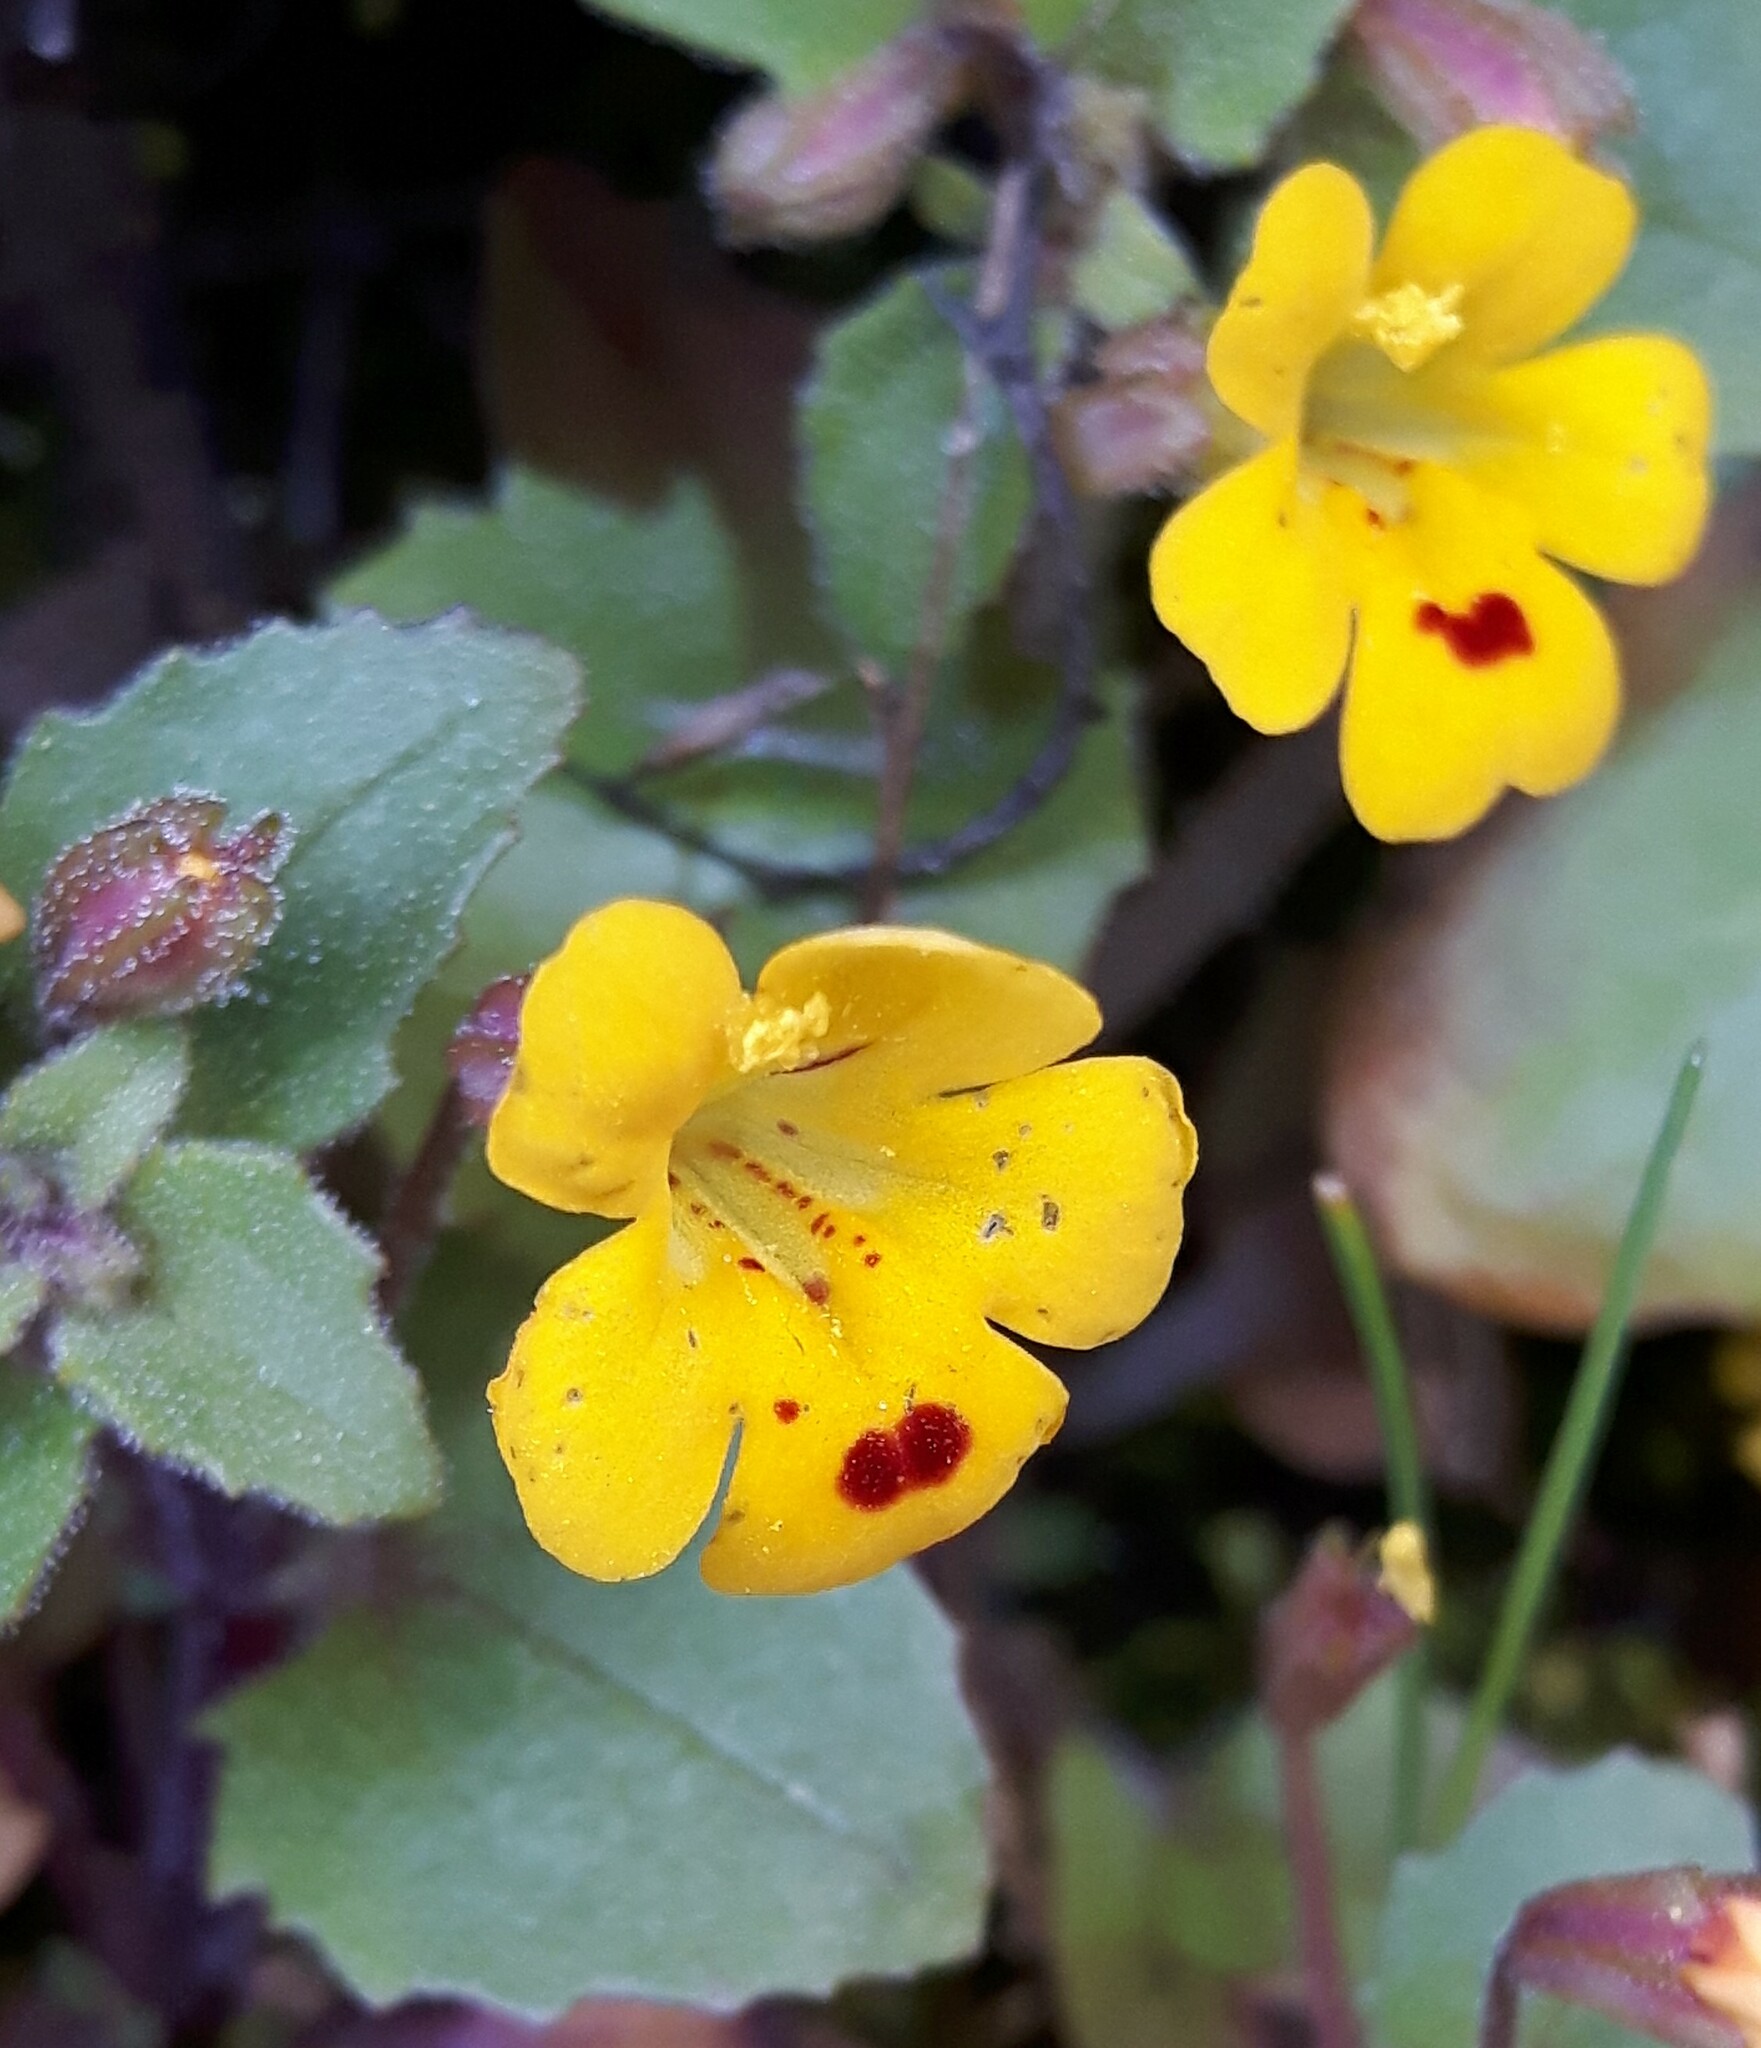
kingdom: Plantae
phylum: Tracheophyta
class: Magnoliopsida
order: Lamiales
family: Phrymaceae
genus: Erythranthe
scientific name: Erythranthe alsinoides
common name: Chickweed monkeyflower
